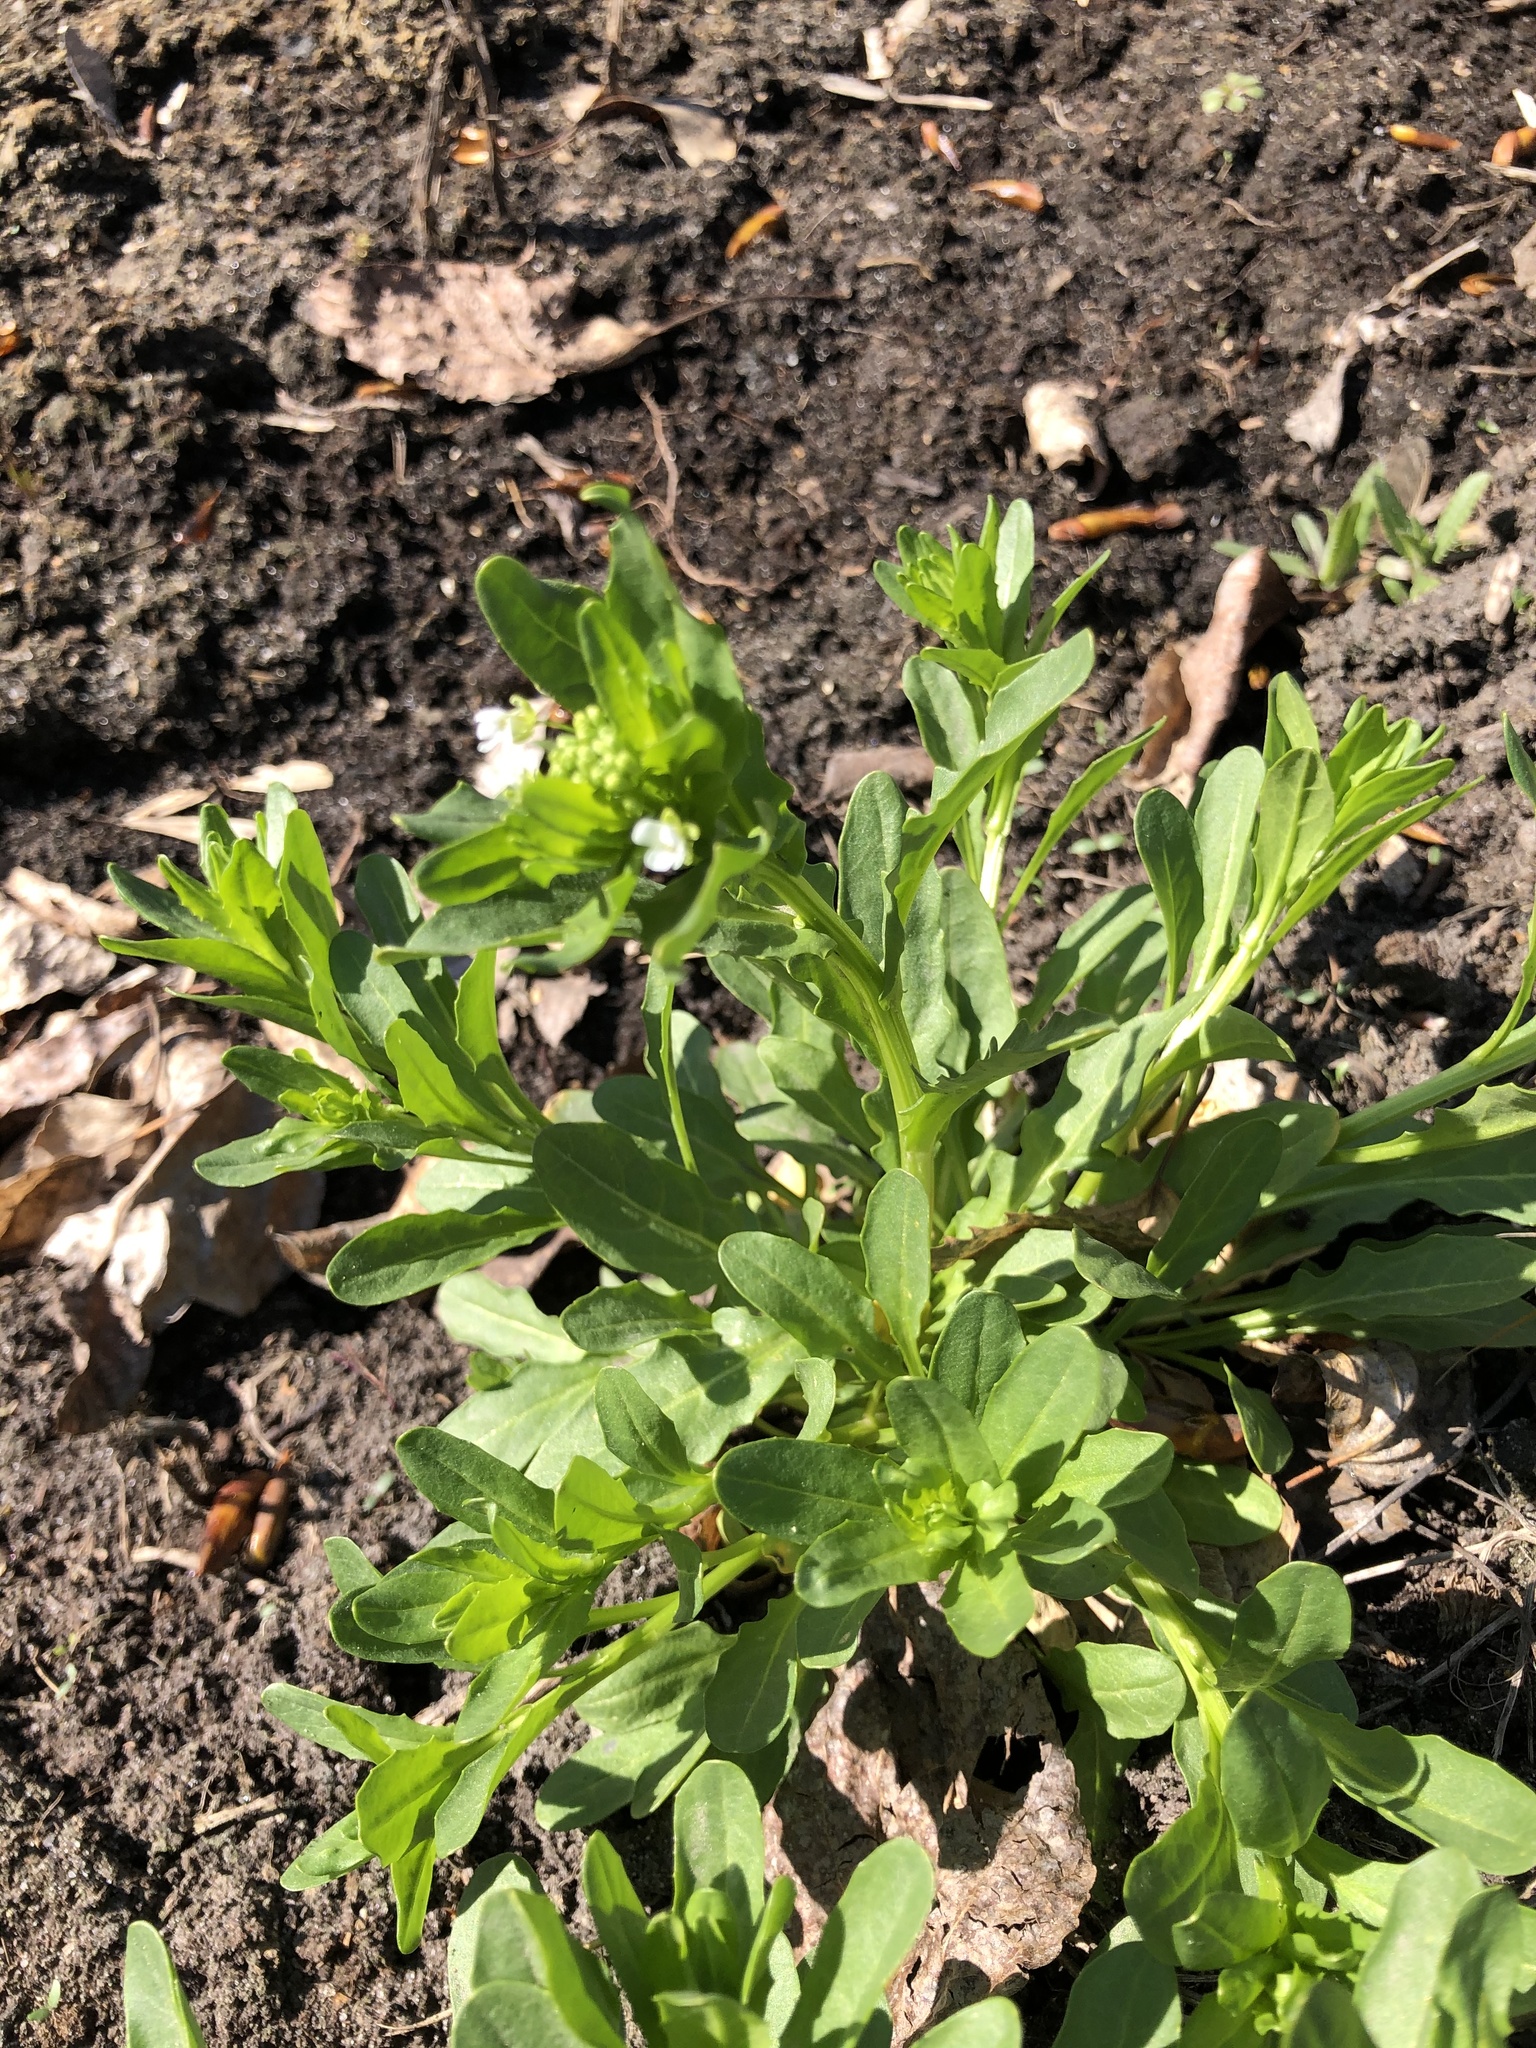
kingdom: Plantae
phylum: Tracheophyta
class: Magnoliopsida
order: Brassicales
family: Brassicaceae
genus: Thlaspi
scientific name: Thlaspi arvense
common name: Field pennycress
